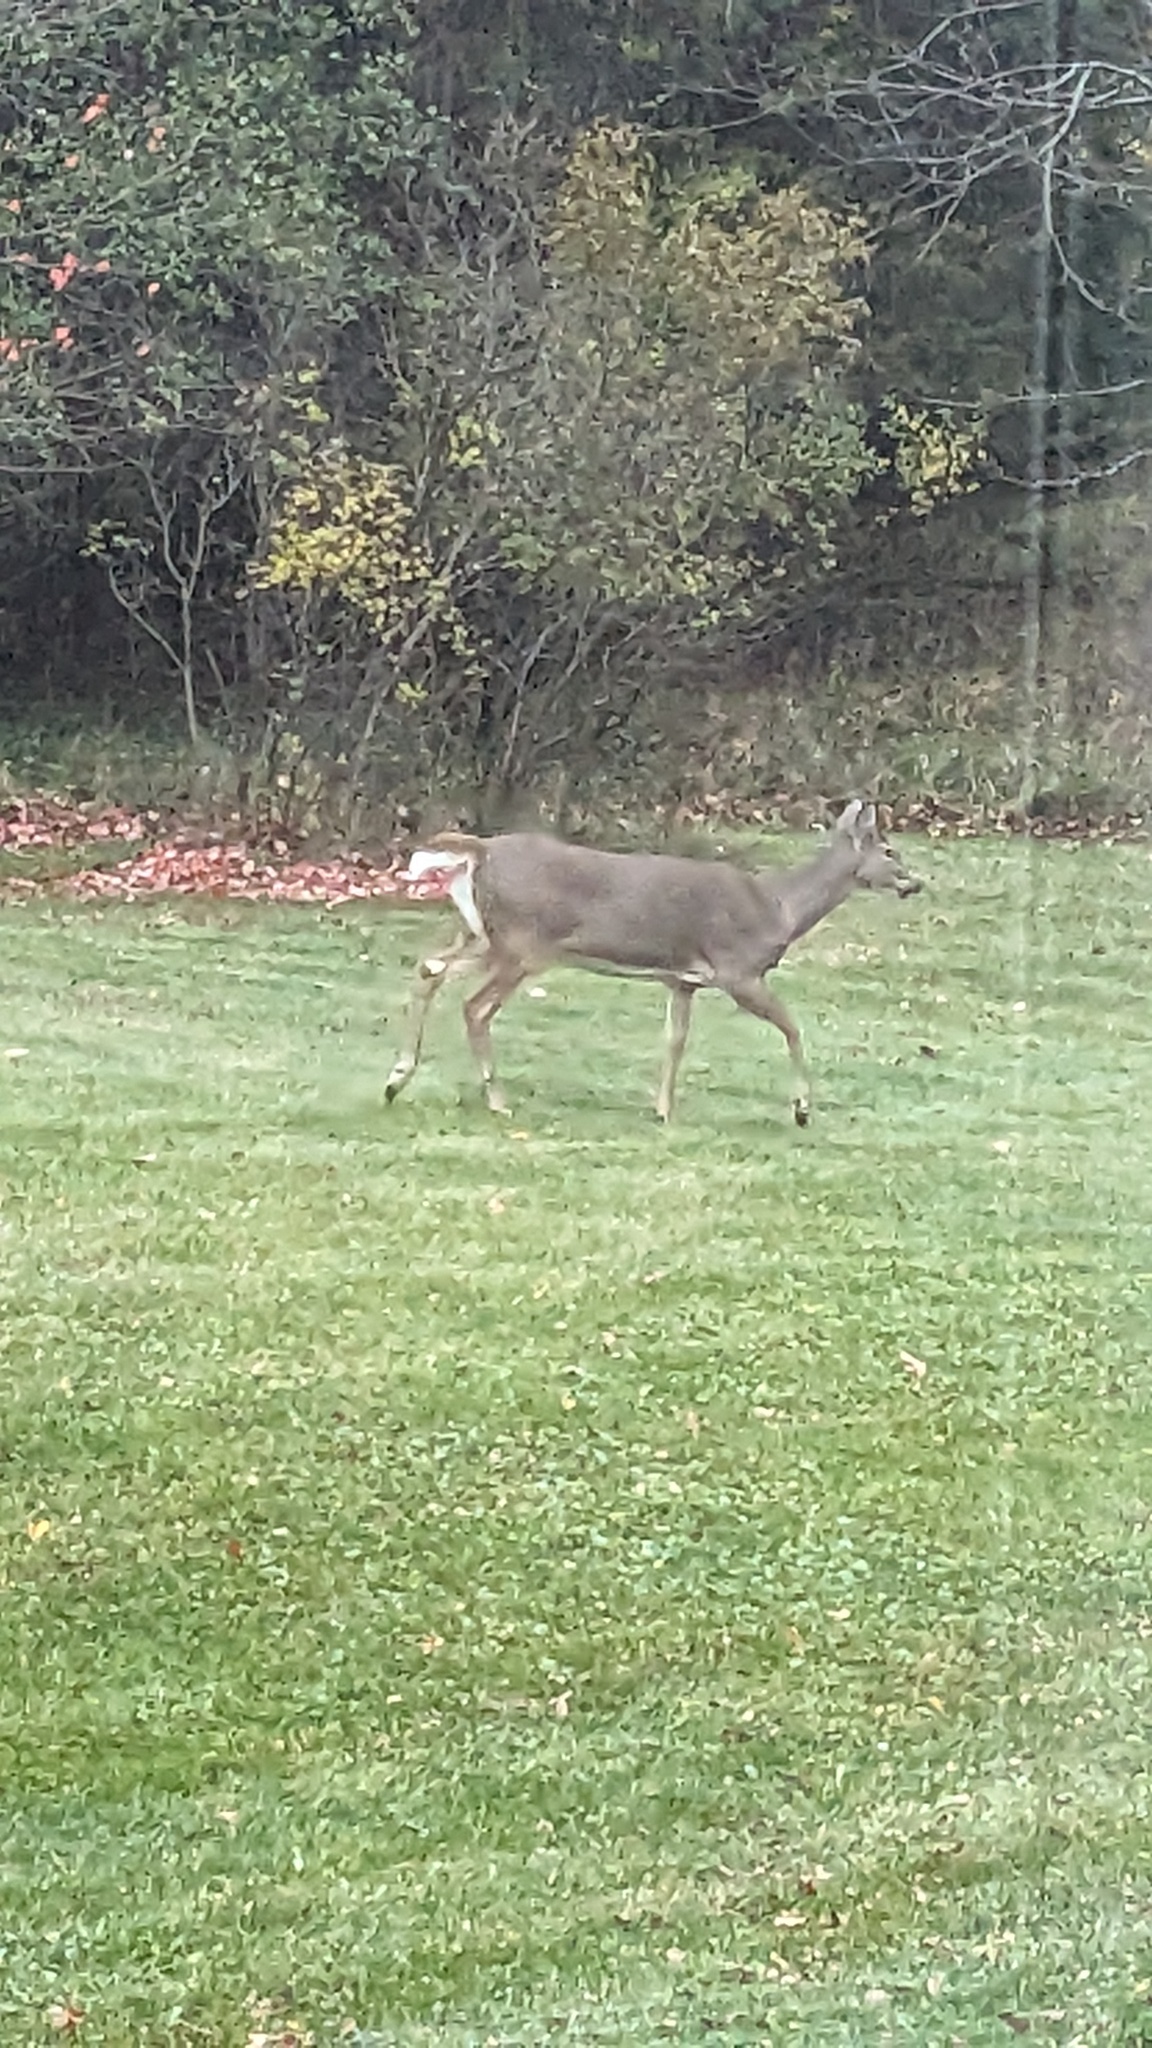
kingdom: Animalia
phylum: Chordata
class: Mammalia
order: Artiodactyla
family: Cervidae
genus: Odocoileus
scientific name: Odocoileus virginianus
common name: White-tailed deer
